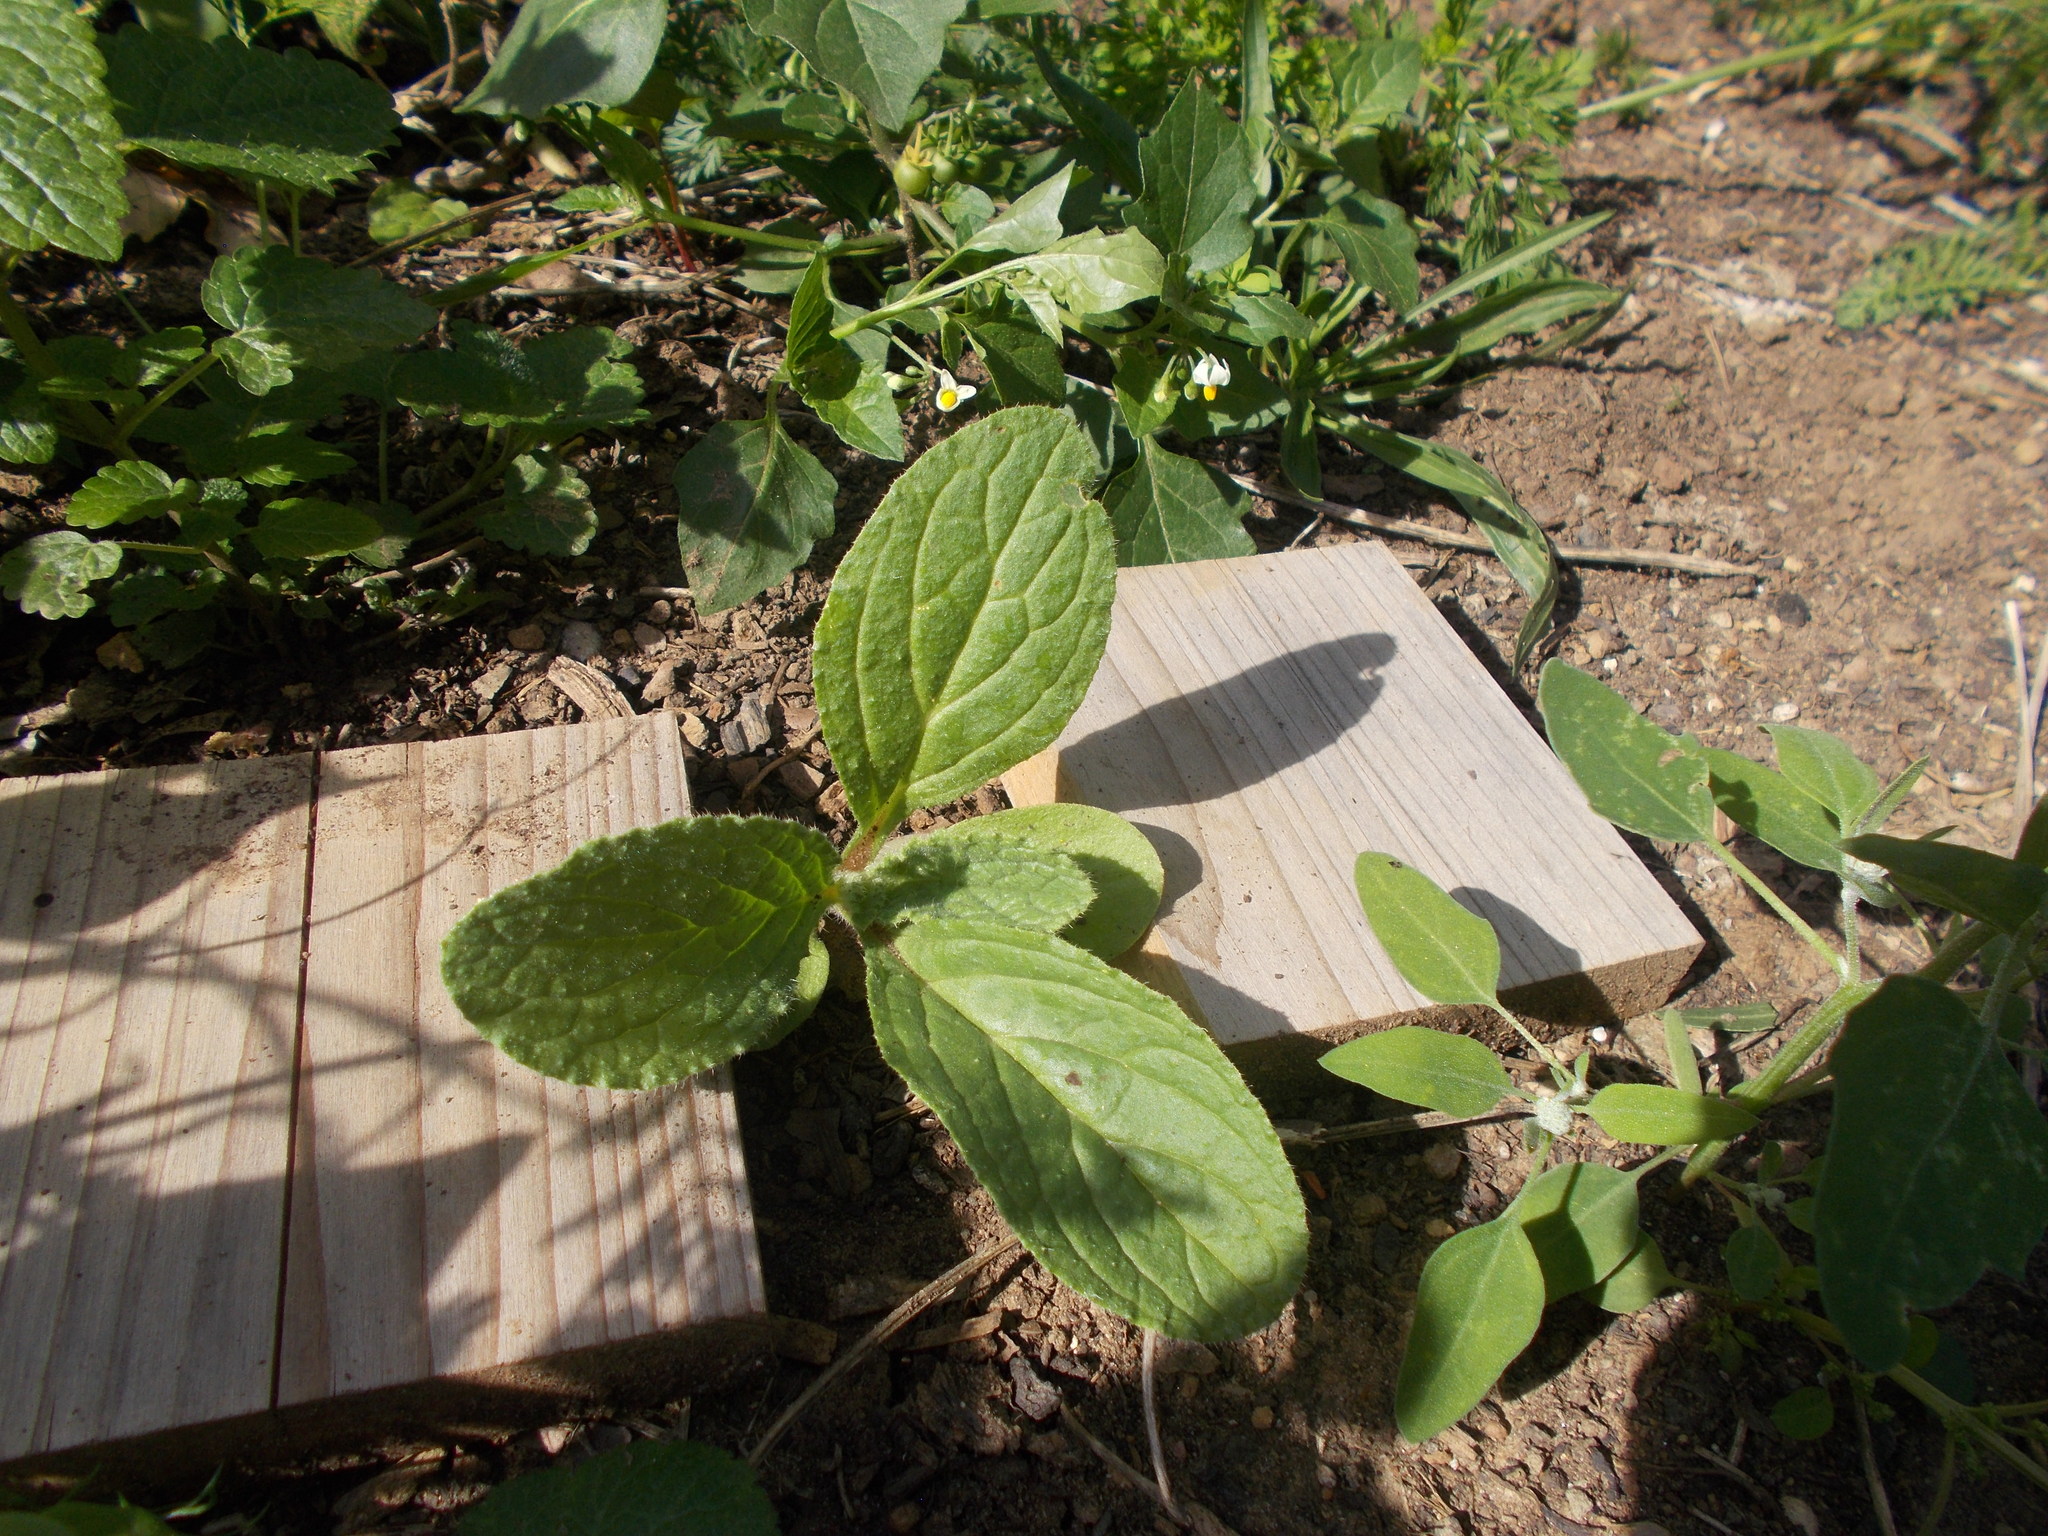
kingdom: Plantae
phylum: Tracheophyta
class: Magnoliopsida
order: Boraginales
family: Boraginaceae
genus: Borago
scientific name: Borago officinalis
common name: Borage
